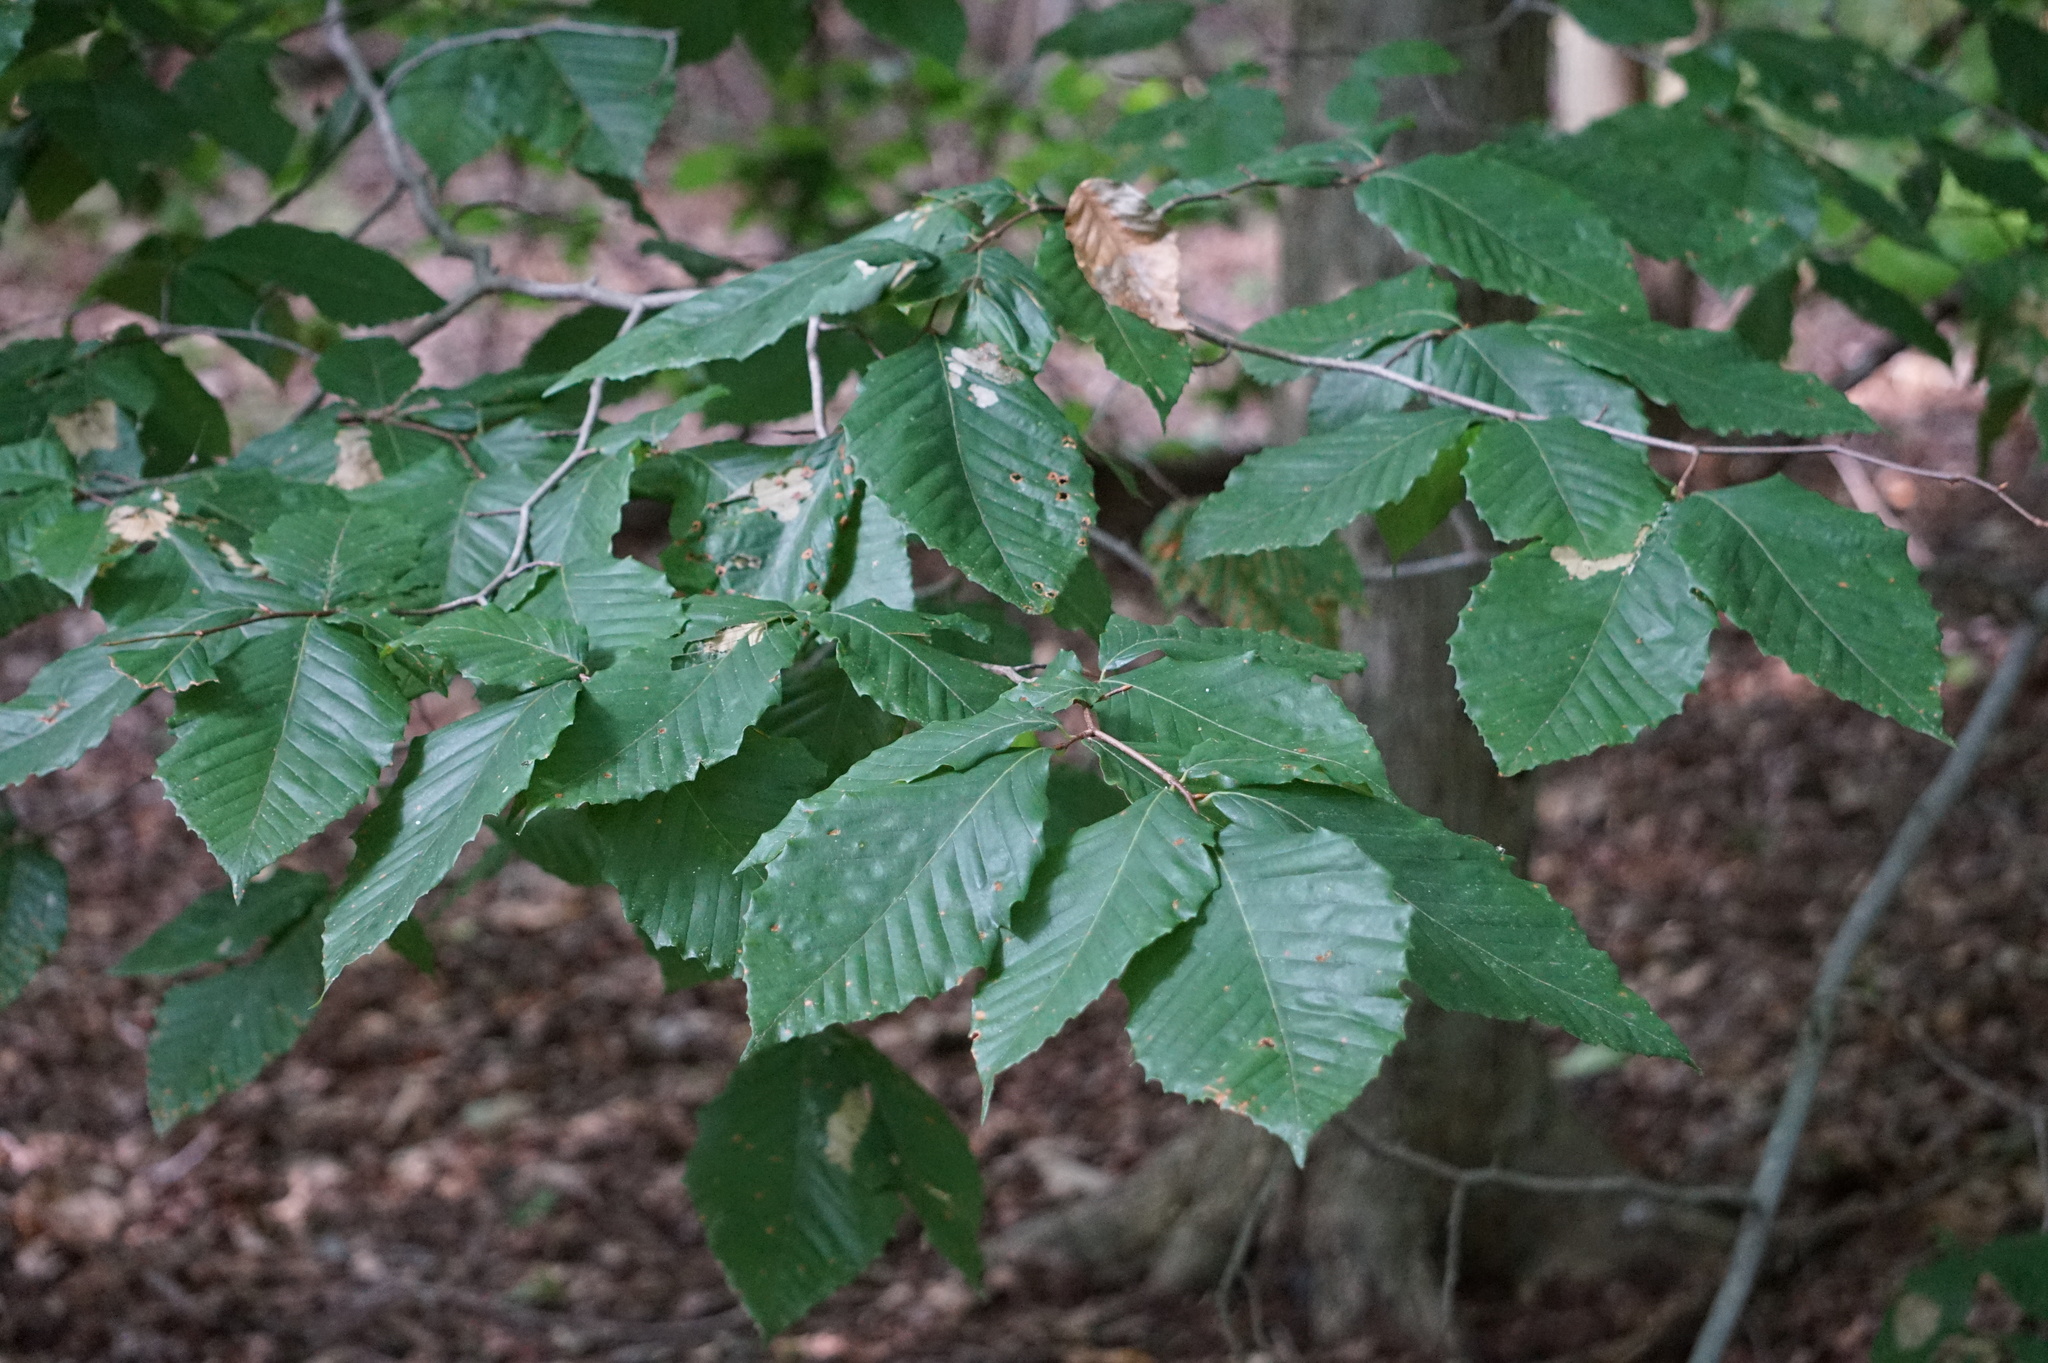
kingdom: Plantae
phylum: Tracheophyta
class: Magnoliopsida
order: Fagales
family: Fagaceae
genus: Fagus
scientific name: Fagus grandifolia
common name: American beech
